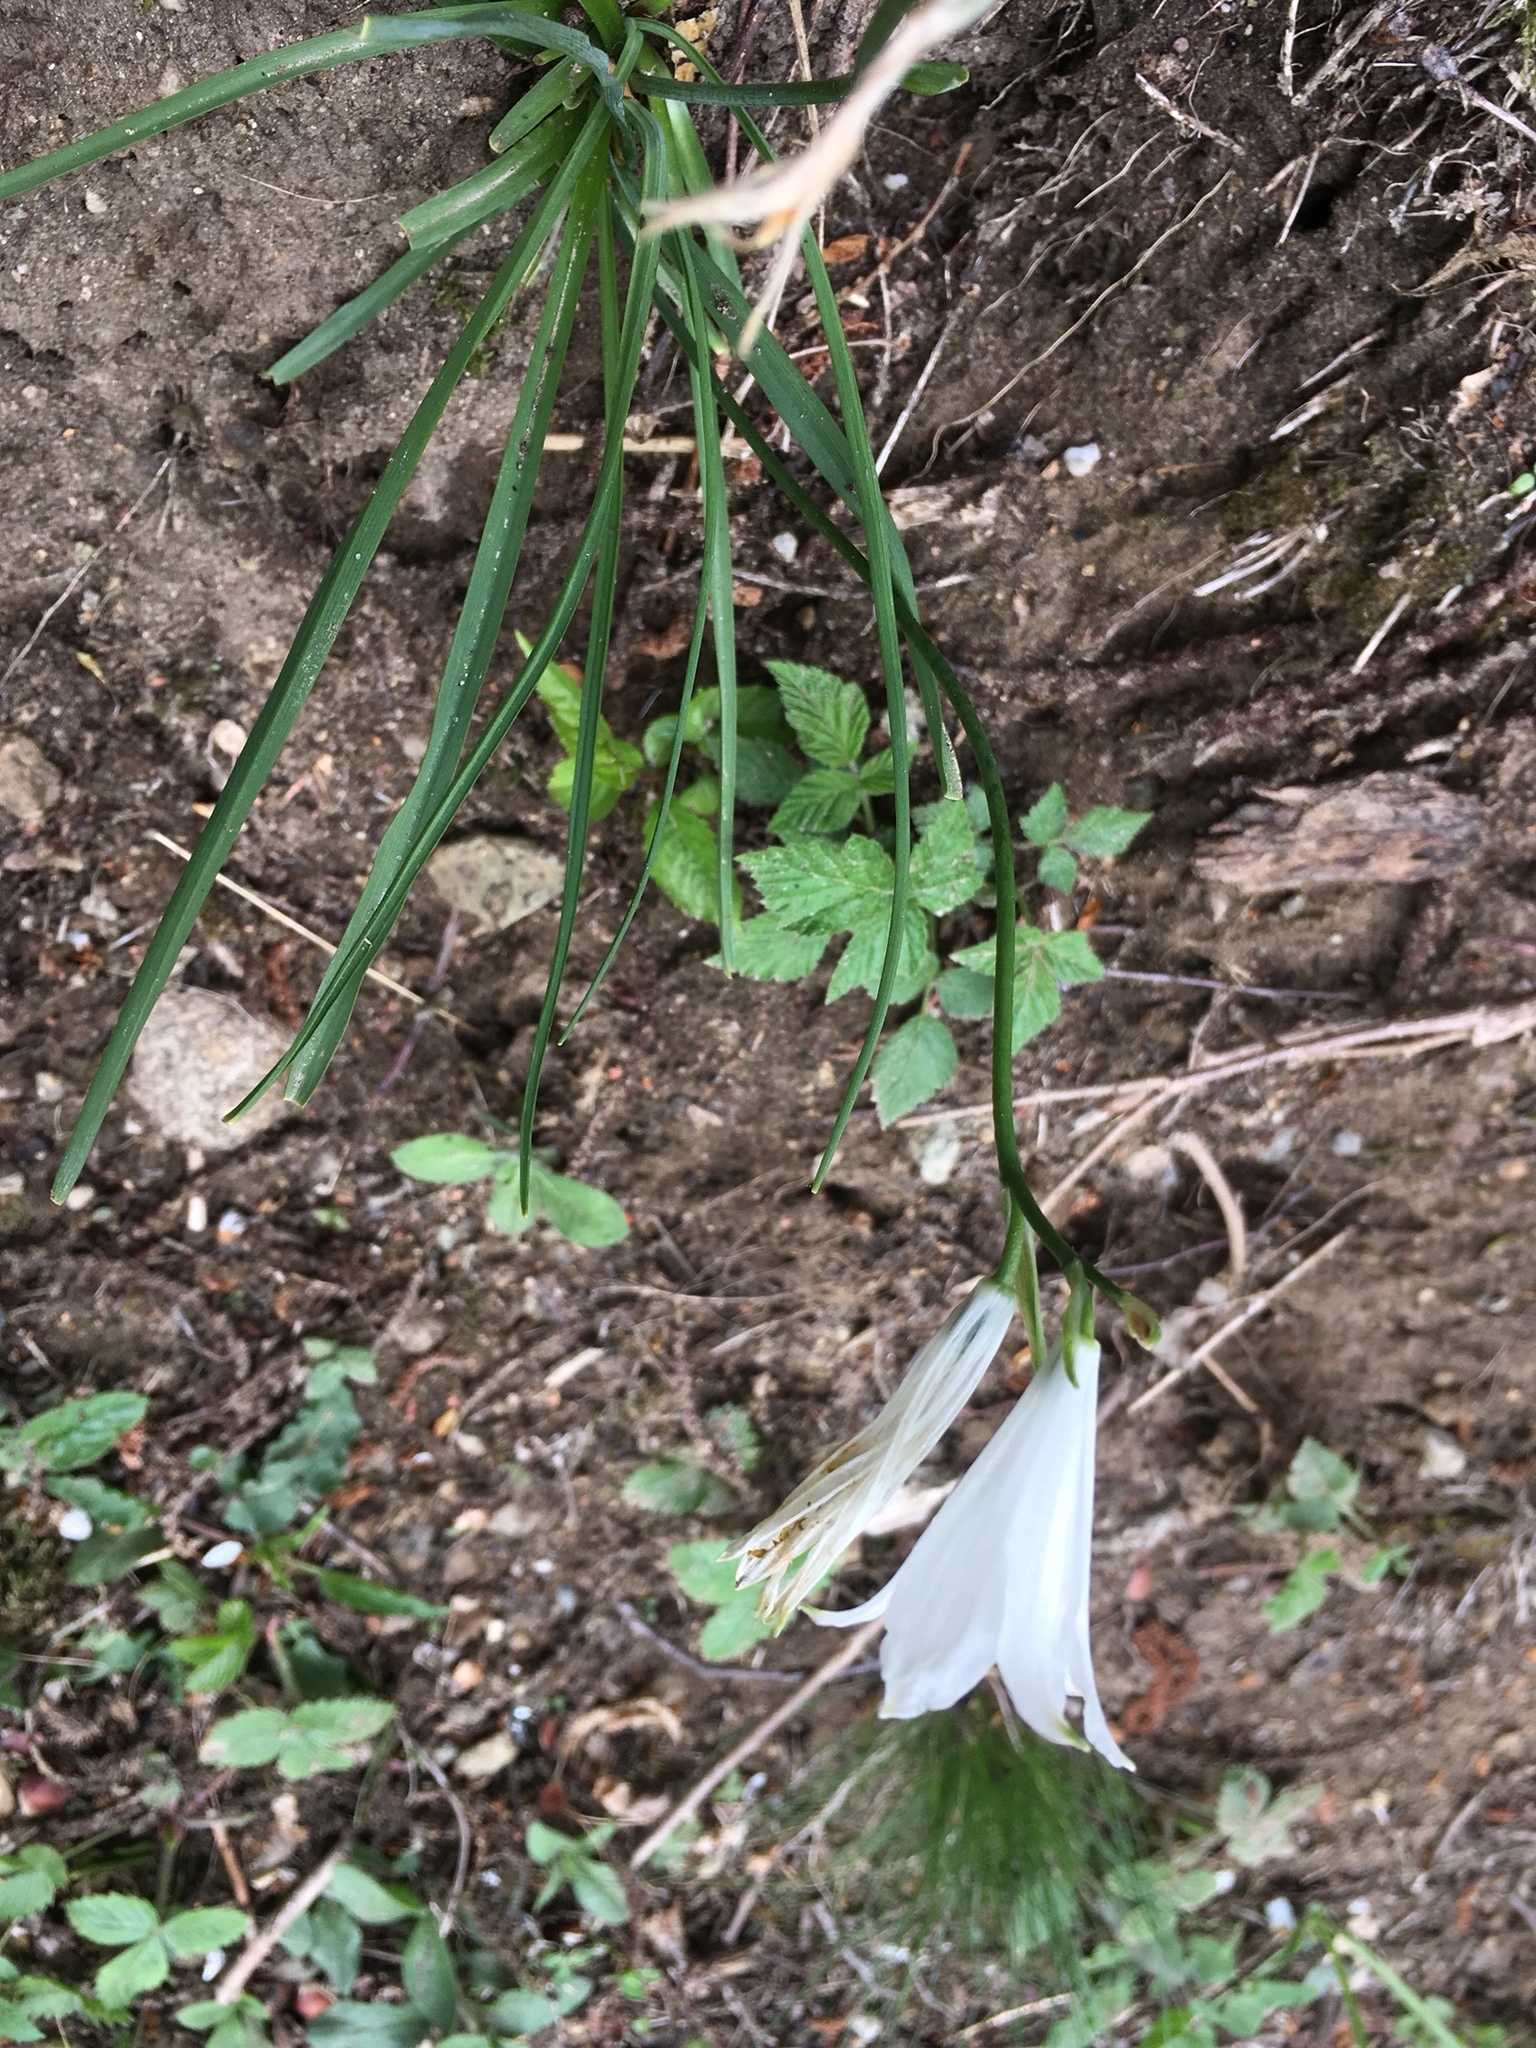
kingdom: Plantae
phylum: Tracheophyta
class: Liliopsida
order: Asparagales
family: Asparagaceae
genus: Paradisea
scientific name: Paradisea liliastrum
